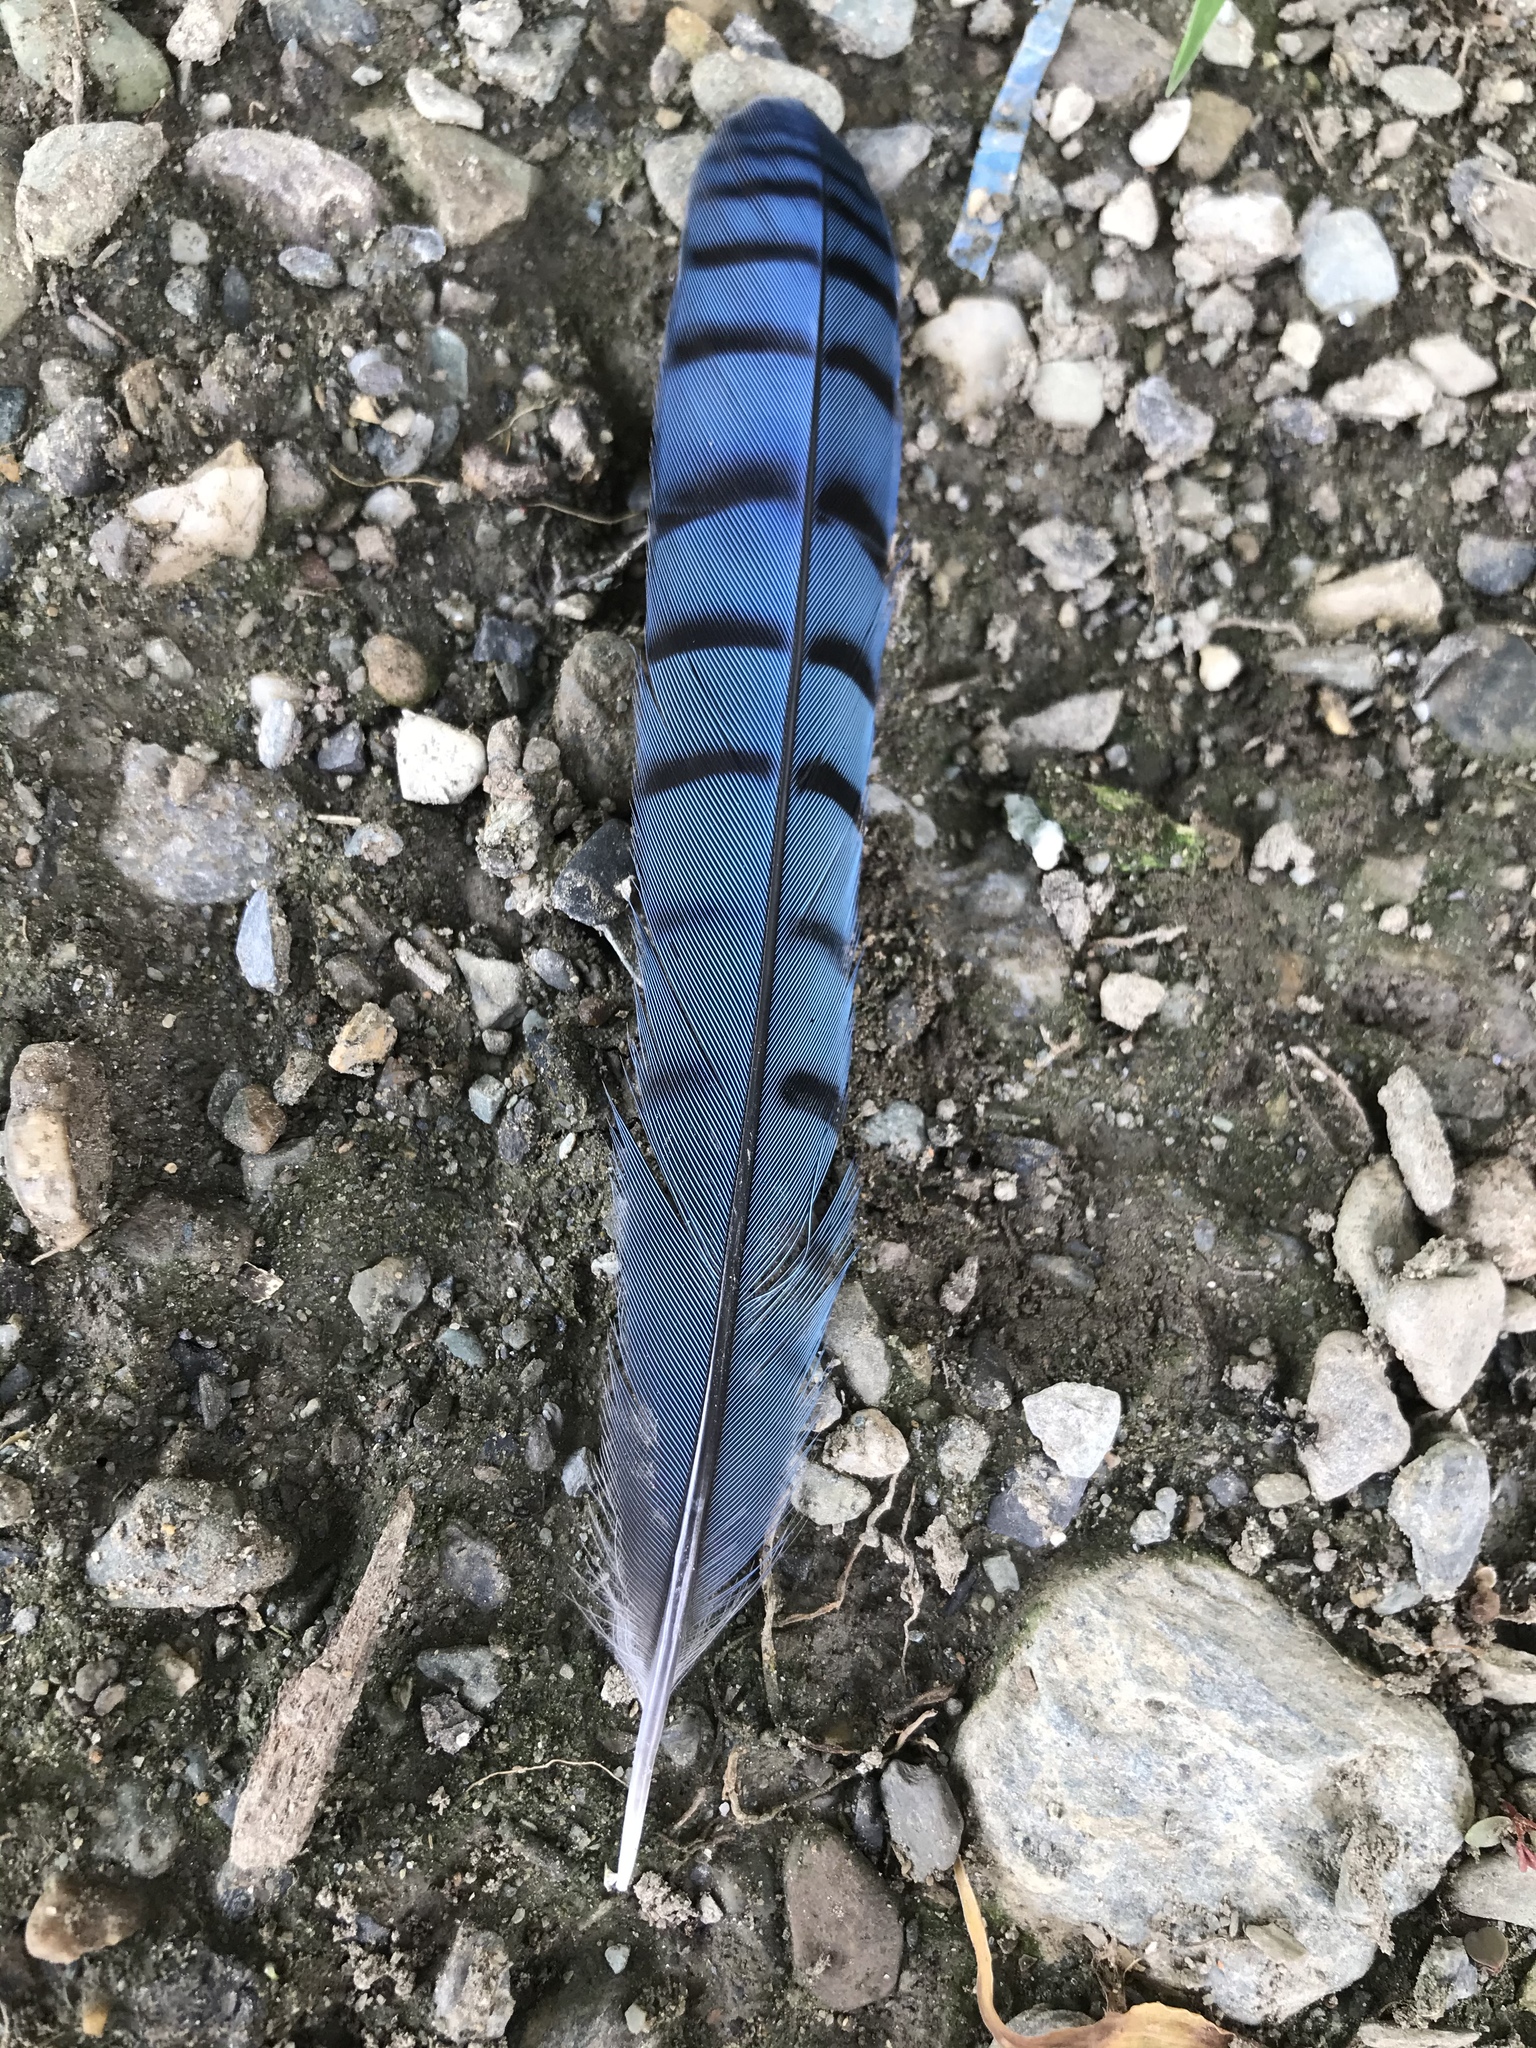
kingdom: Animalia
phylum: Chordata
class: Aves
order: Passeriformes
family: Corvidae
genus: Cyanocitta
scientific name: Cyanocitta cristata
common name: Blue jay
